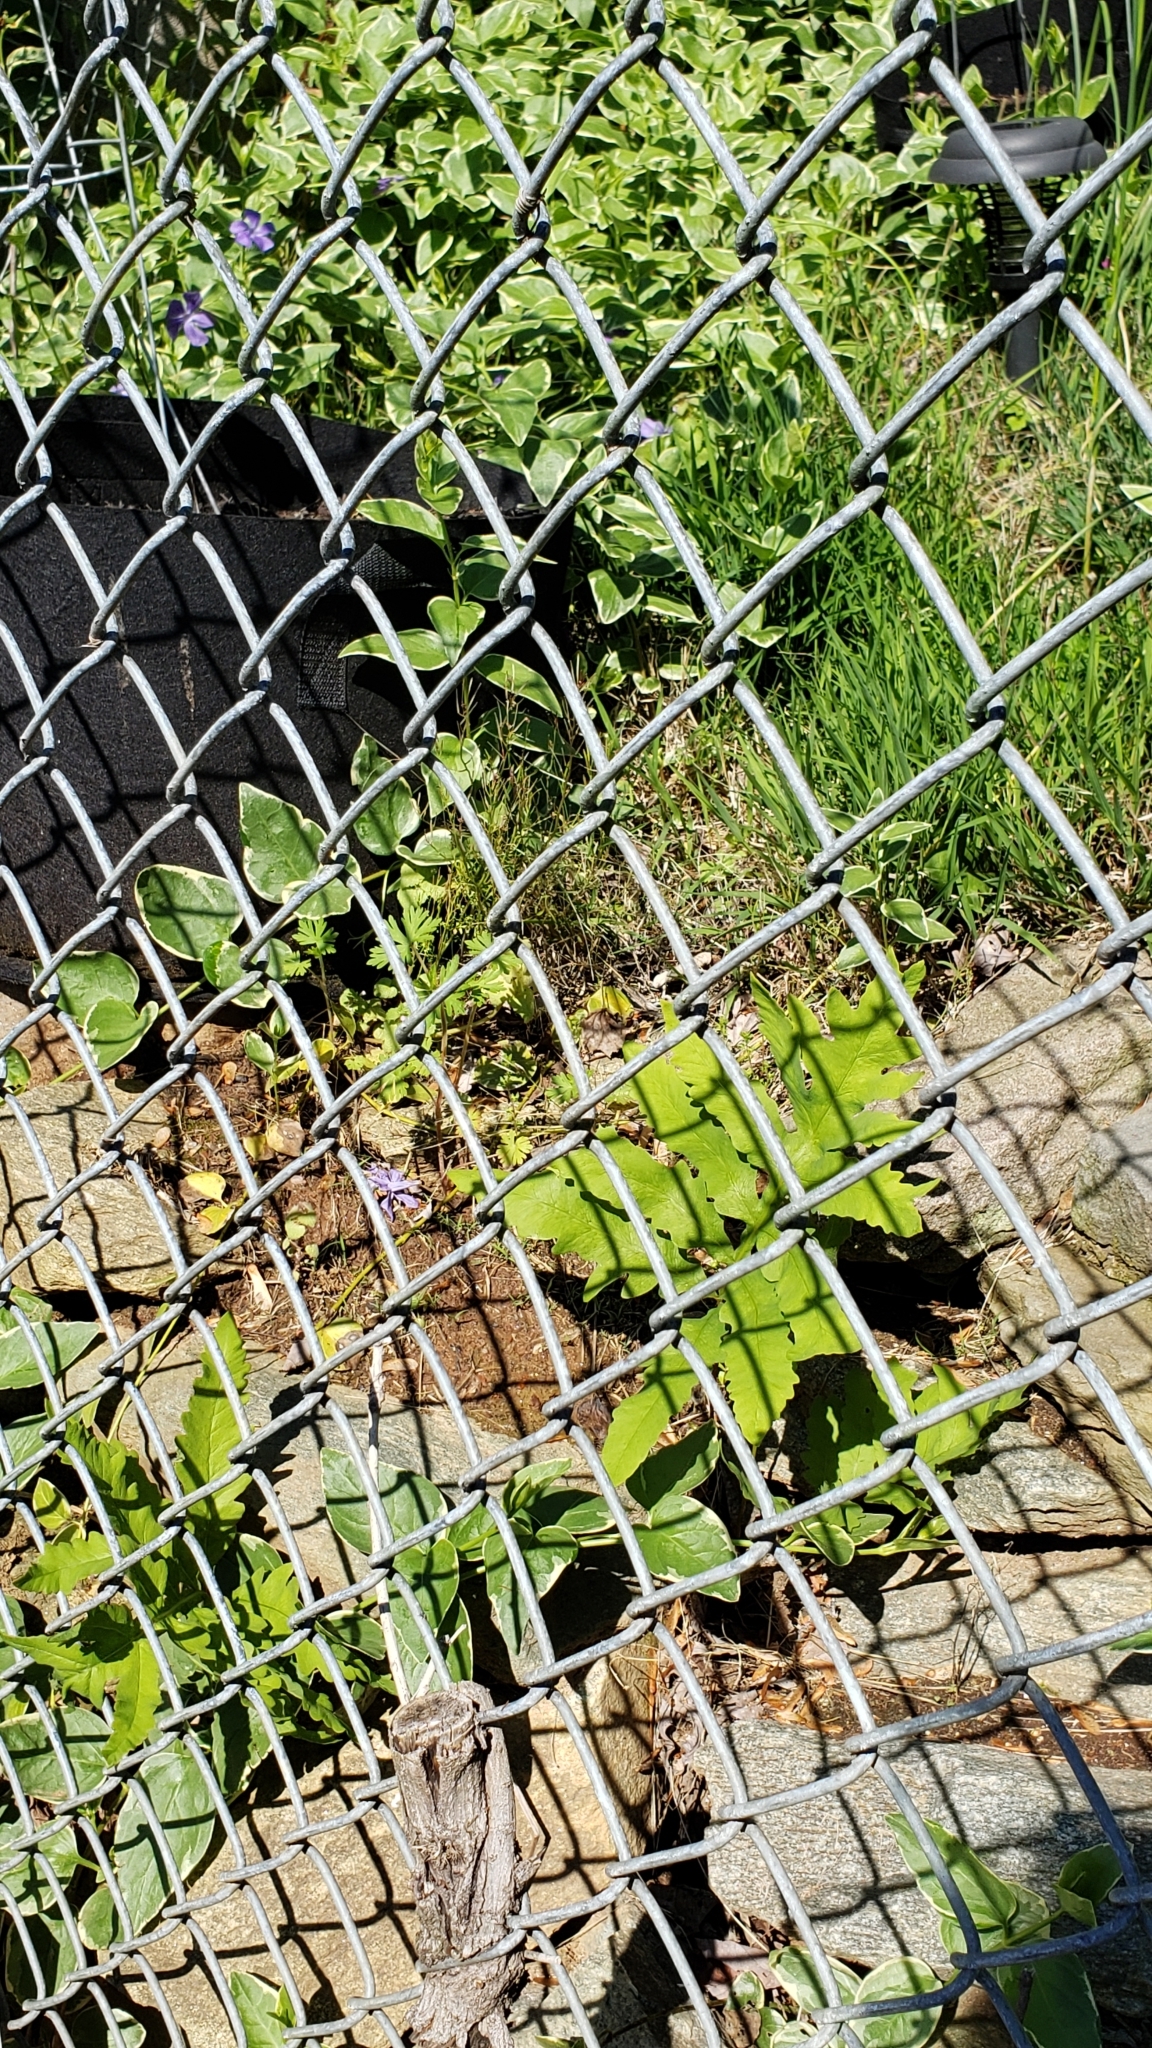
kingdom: Plantae
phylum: Tracheophyta
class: Polypodiopsida
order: Polypodiales
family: Onocleaceae
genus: Onoclea
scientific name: Onoclea sensibilis
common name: Sensitive fern
